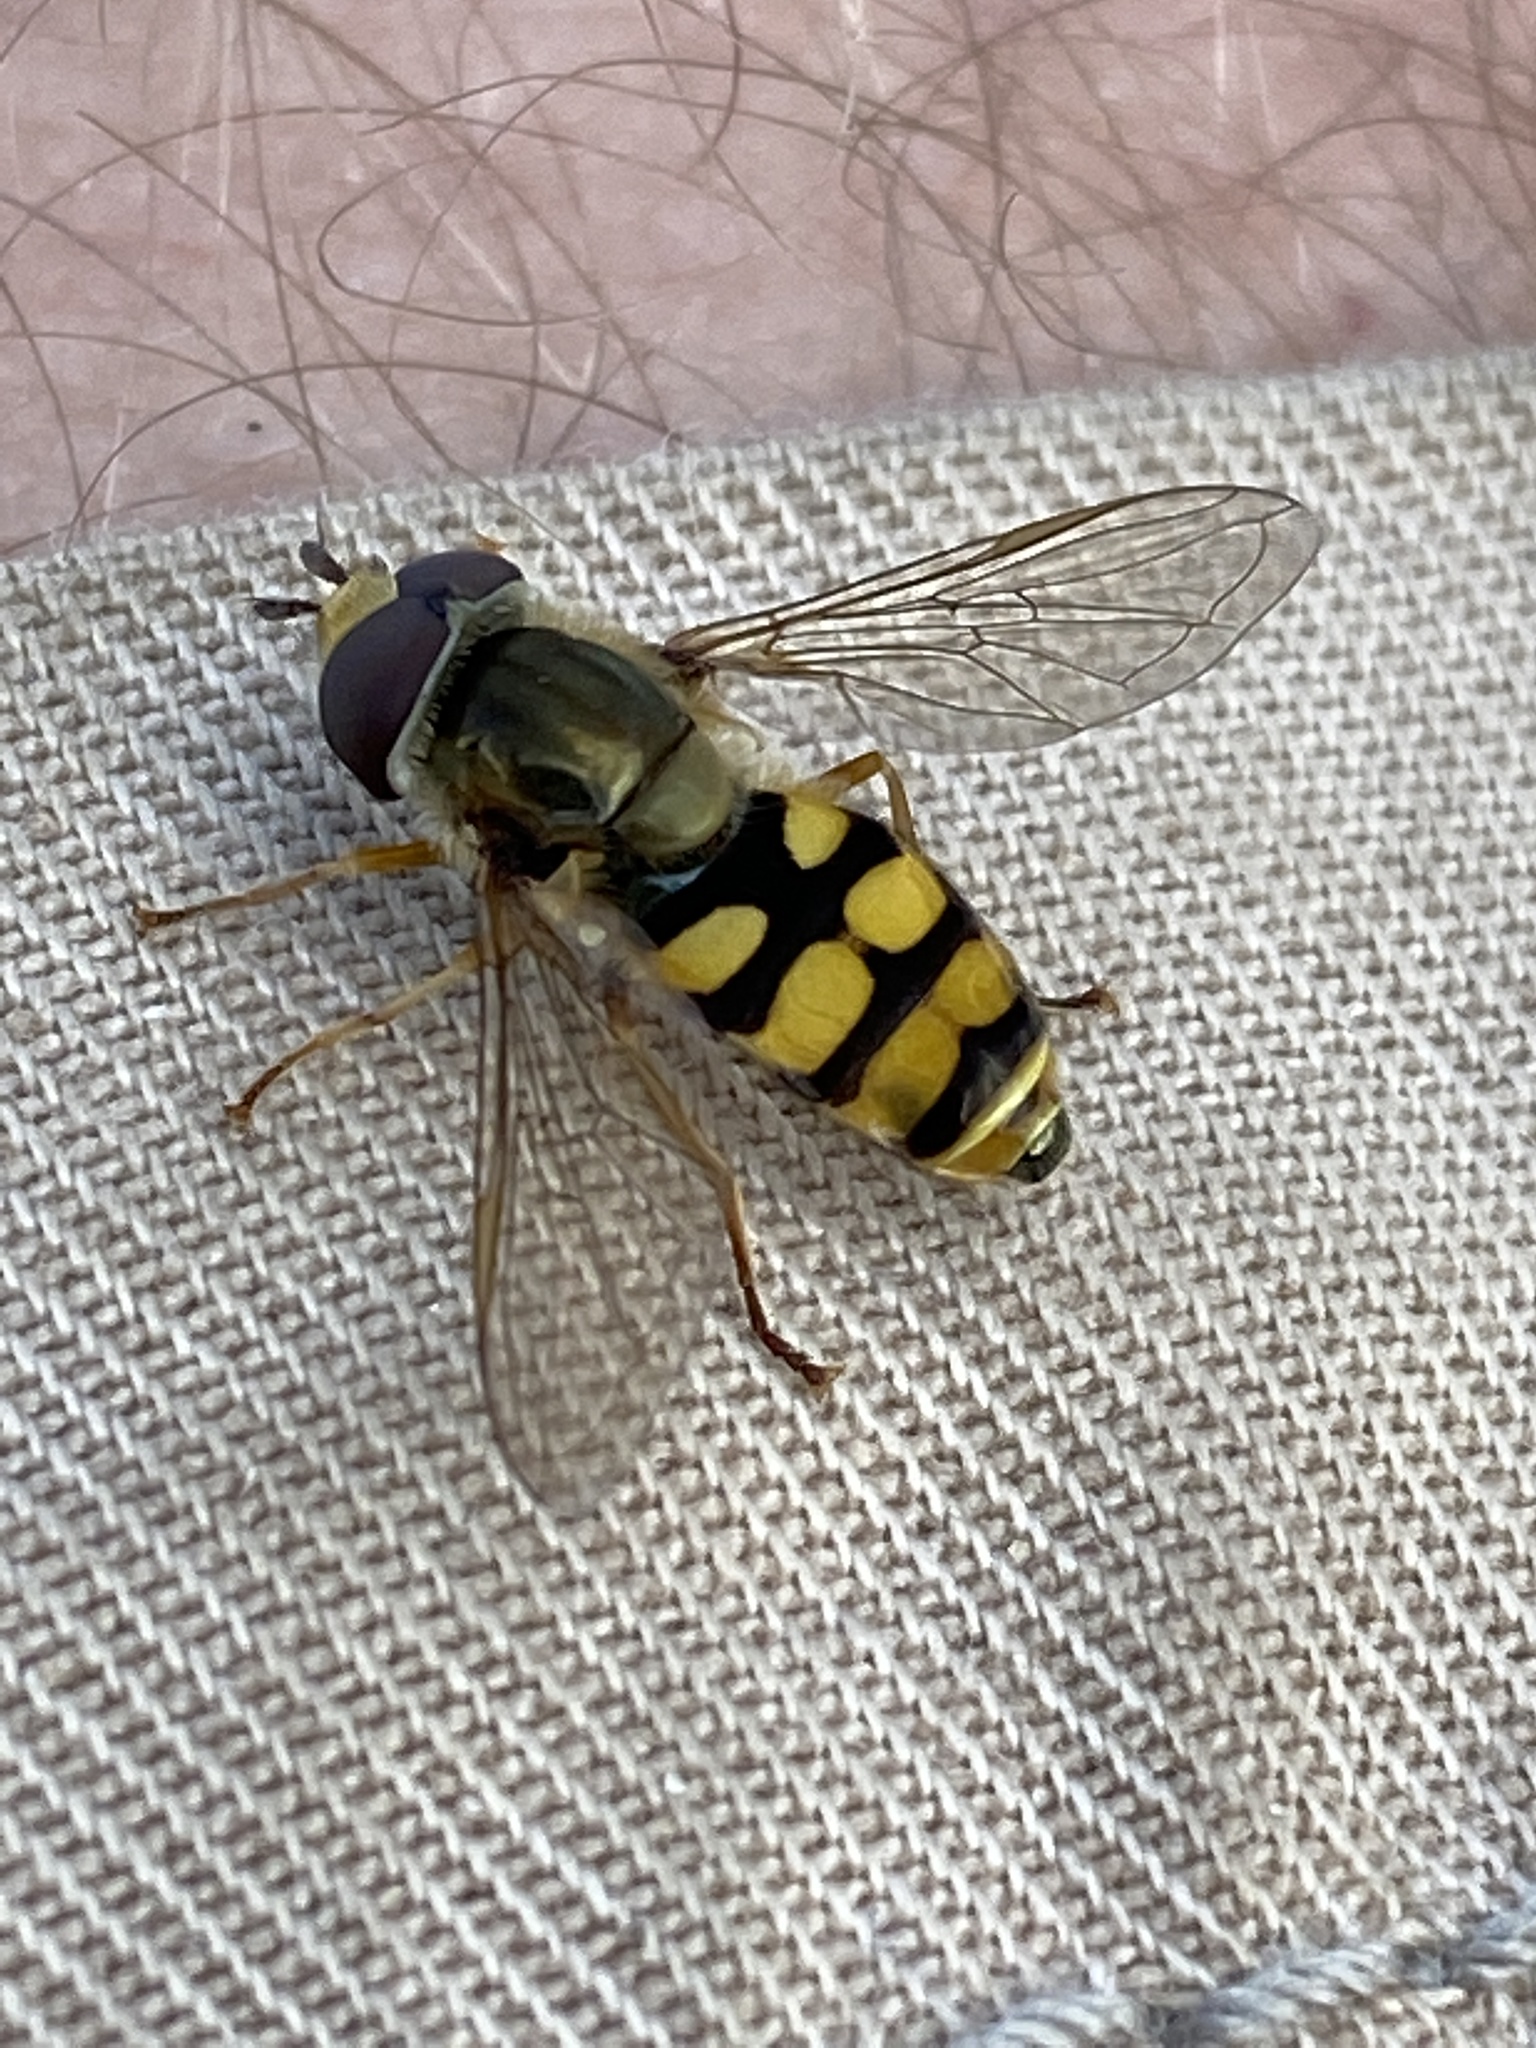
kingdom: Animalia
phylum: Arthropoda
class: Insecta
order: Diptera
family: Syrphidae
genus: Eupeodes
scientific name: Eupeodes corollae
